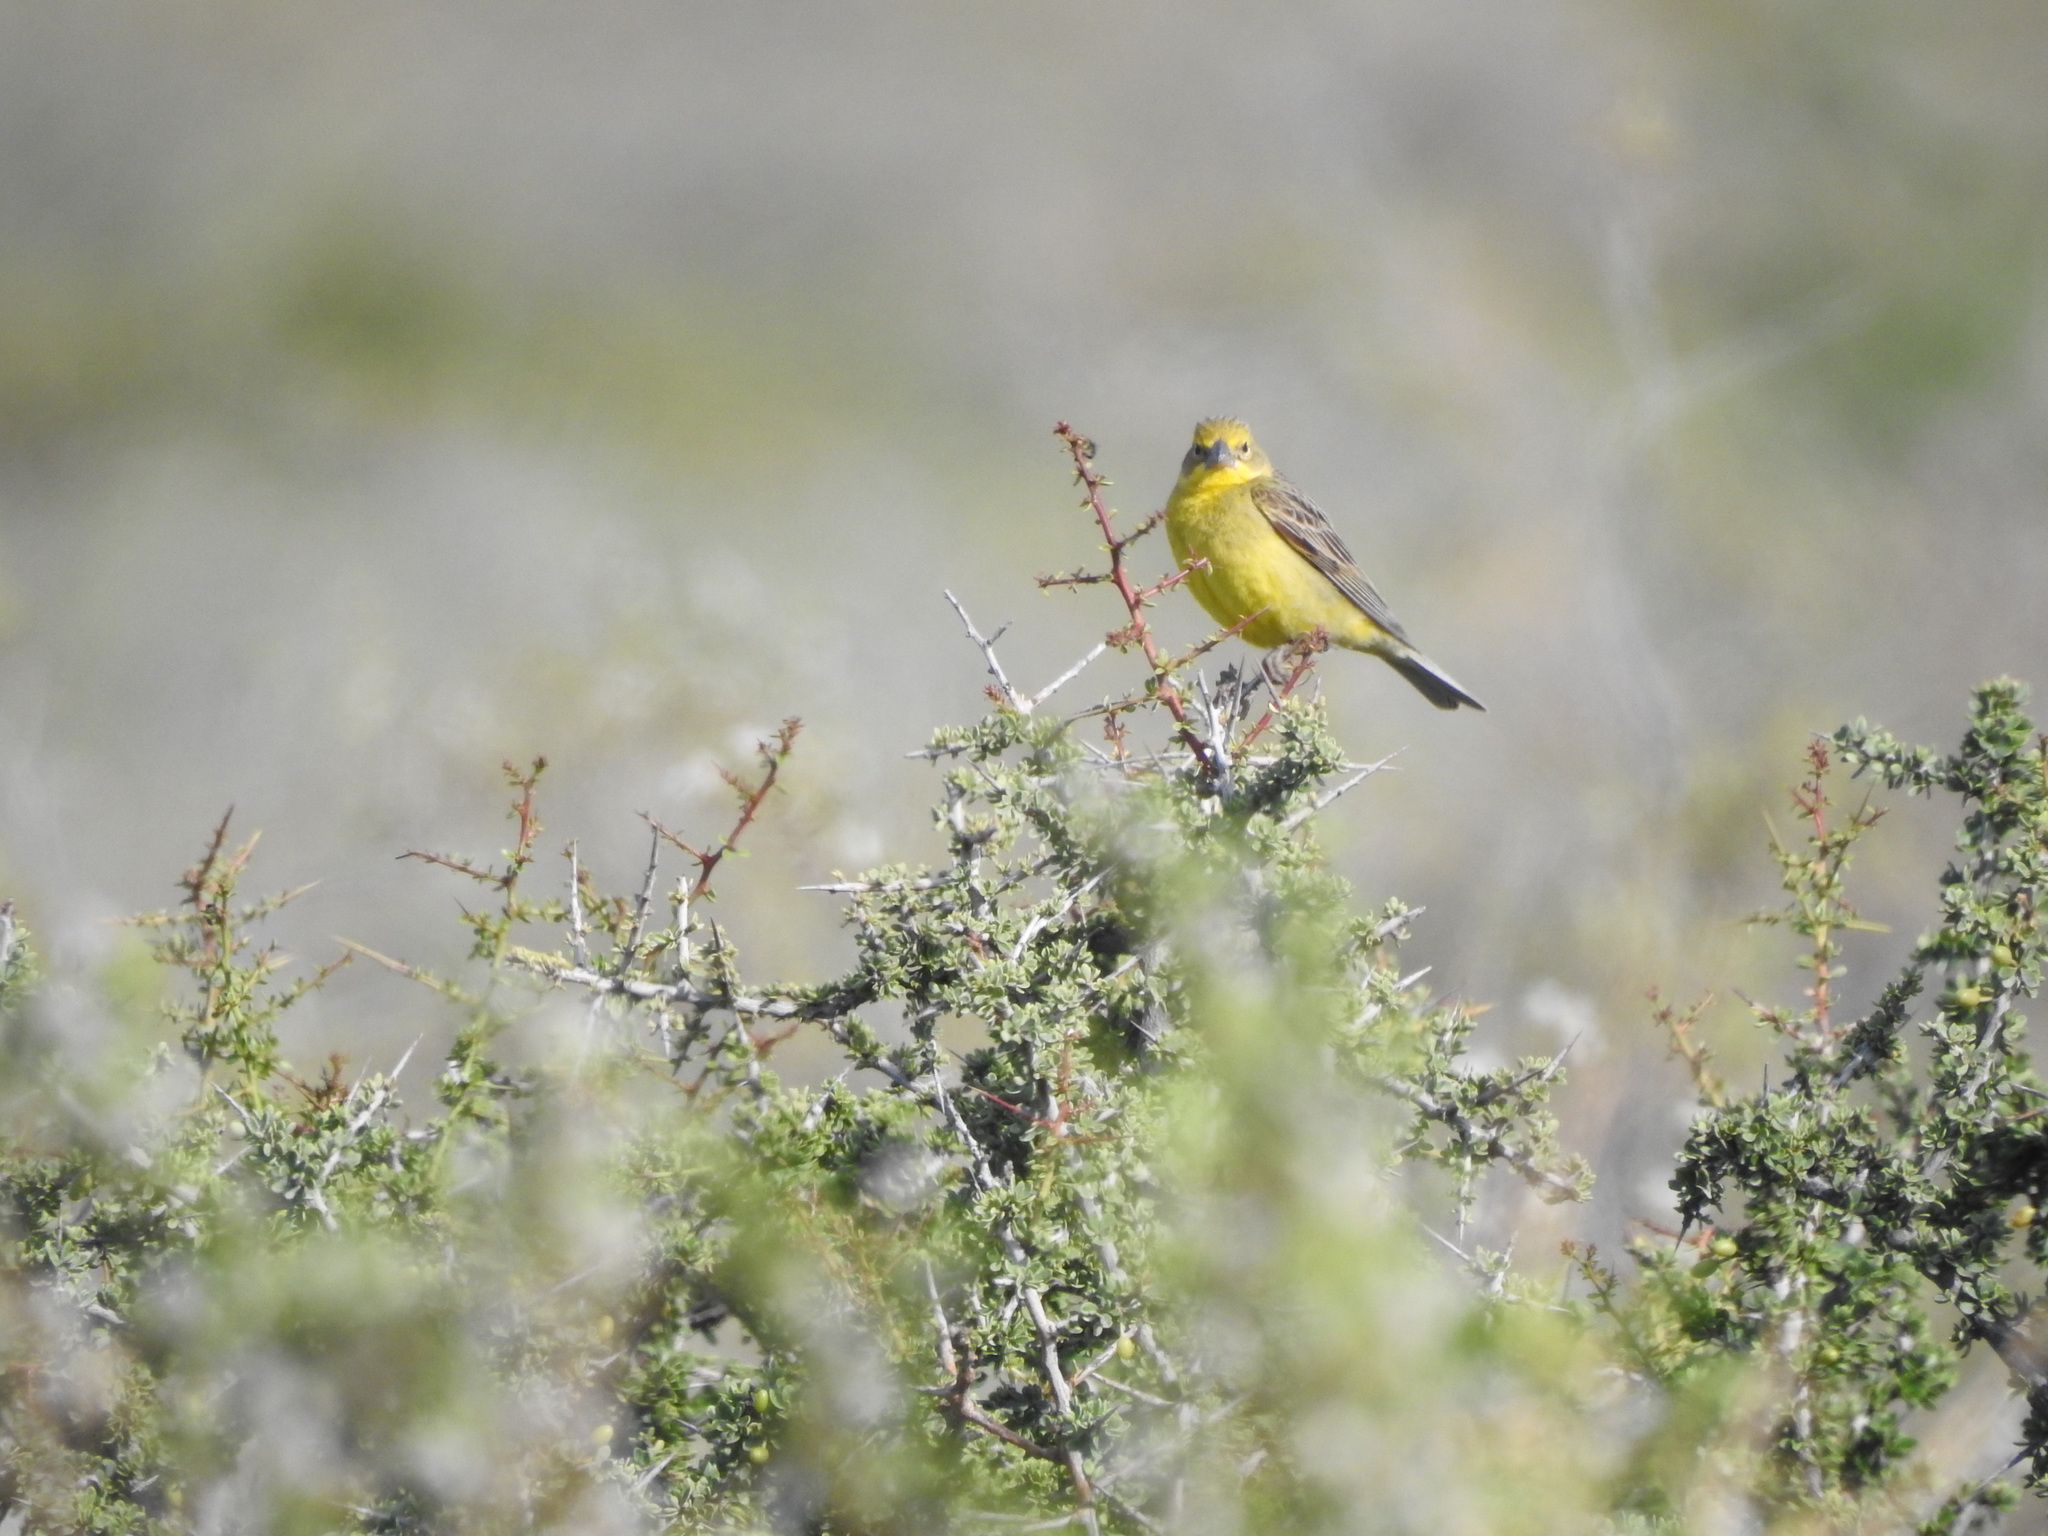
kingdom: Animalia
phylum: Chordata
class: Aves
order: Passeriformes
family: Thraupidae
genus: Sicalis
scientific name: Sicalis luteola
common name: Grassland yellow-finch
